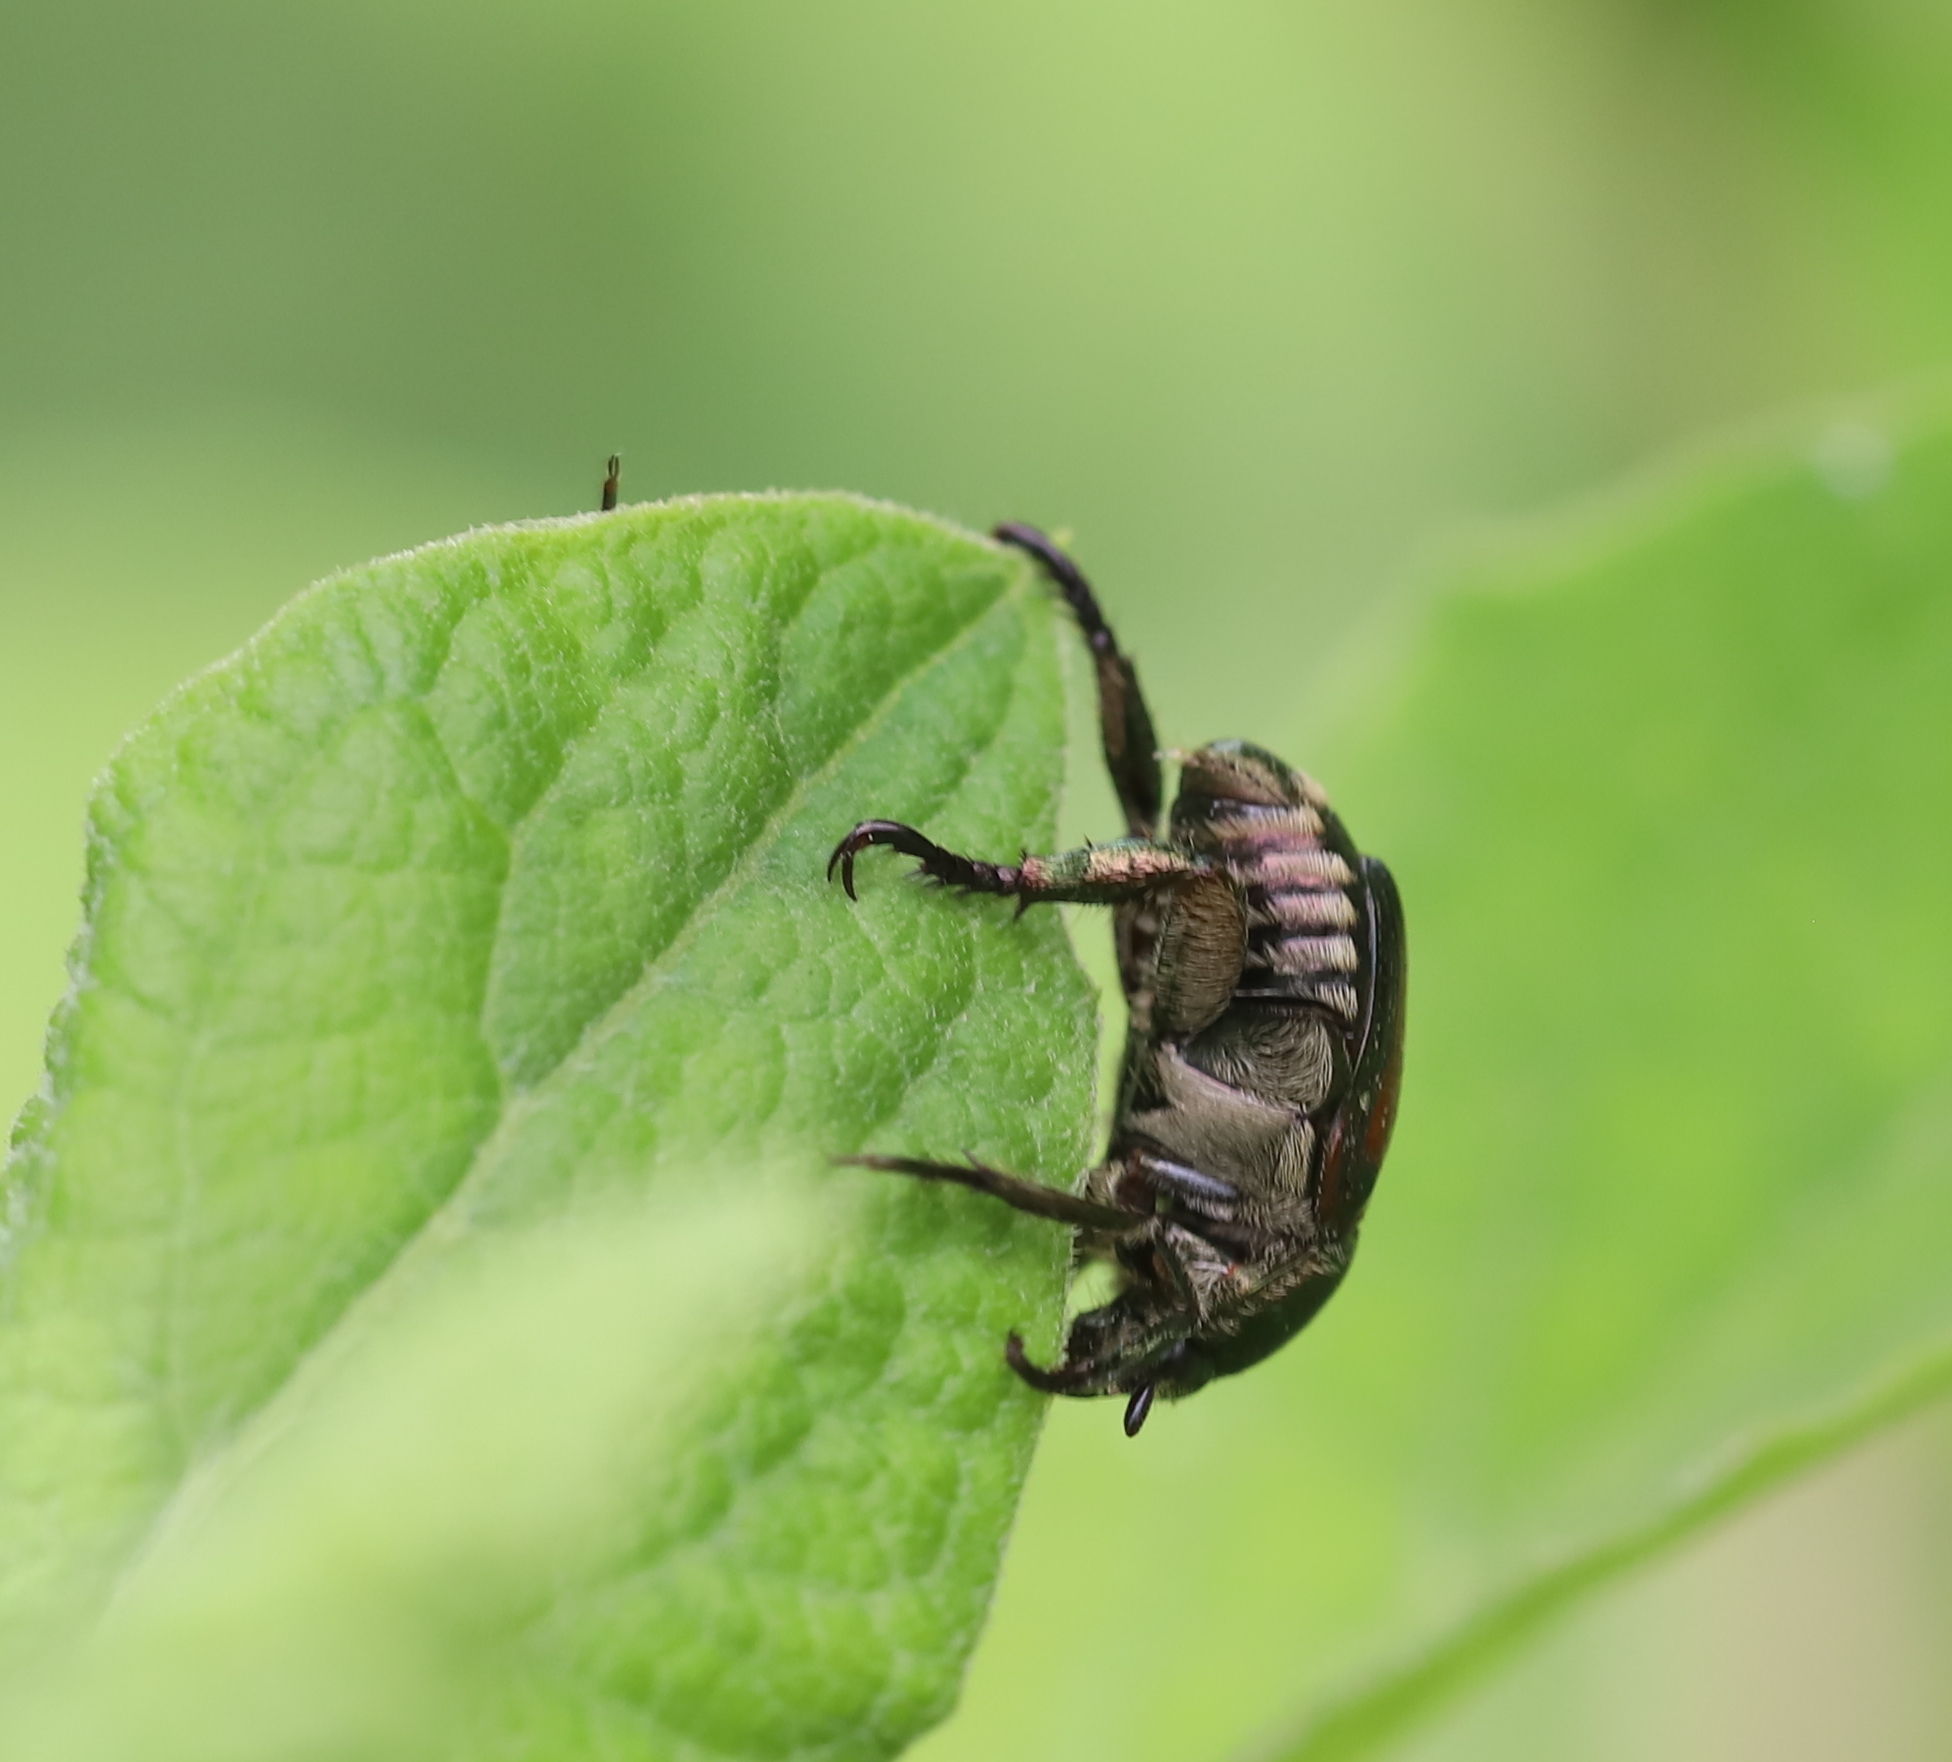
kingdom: Animalia
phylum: Arthropoda
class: Insecta
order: Coleoptera
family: Scarabaeidae
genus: Popillia
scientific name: Popillia japonica
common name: Japanese beetle
